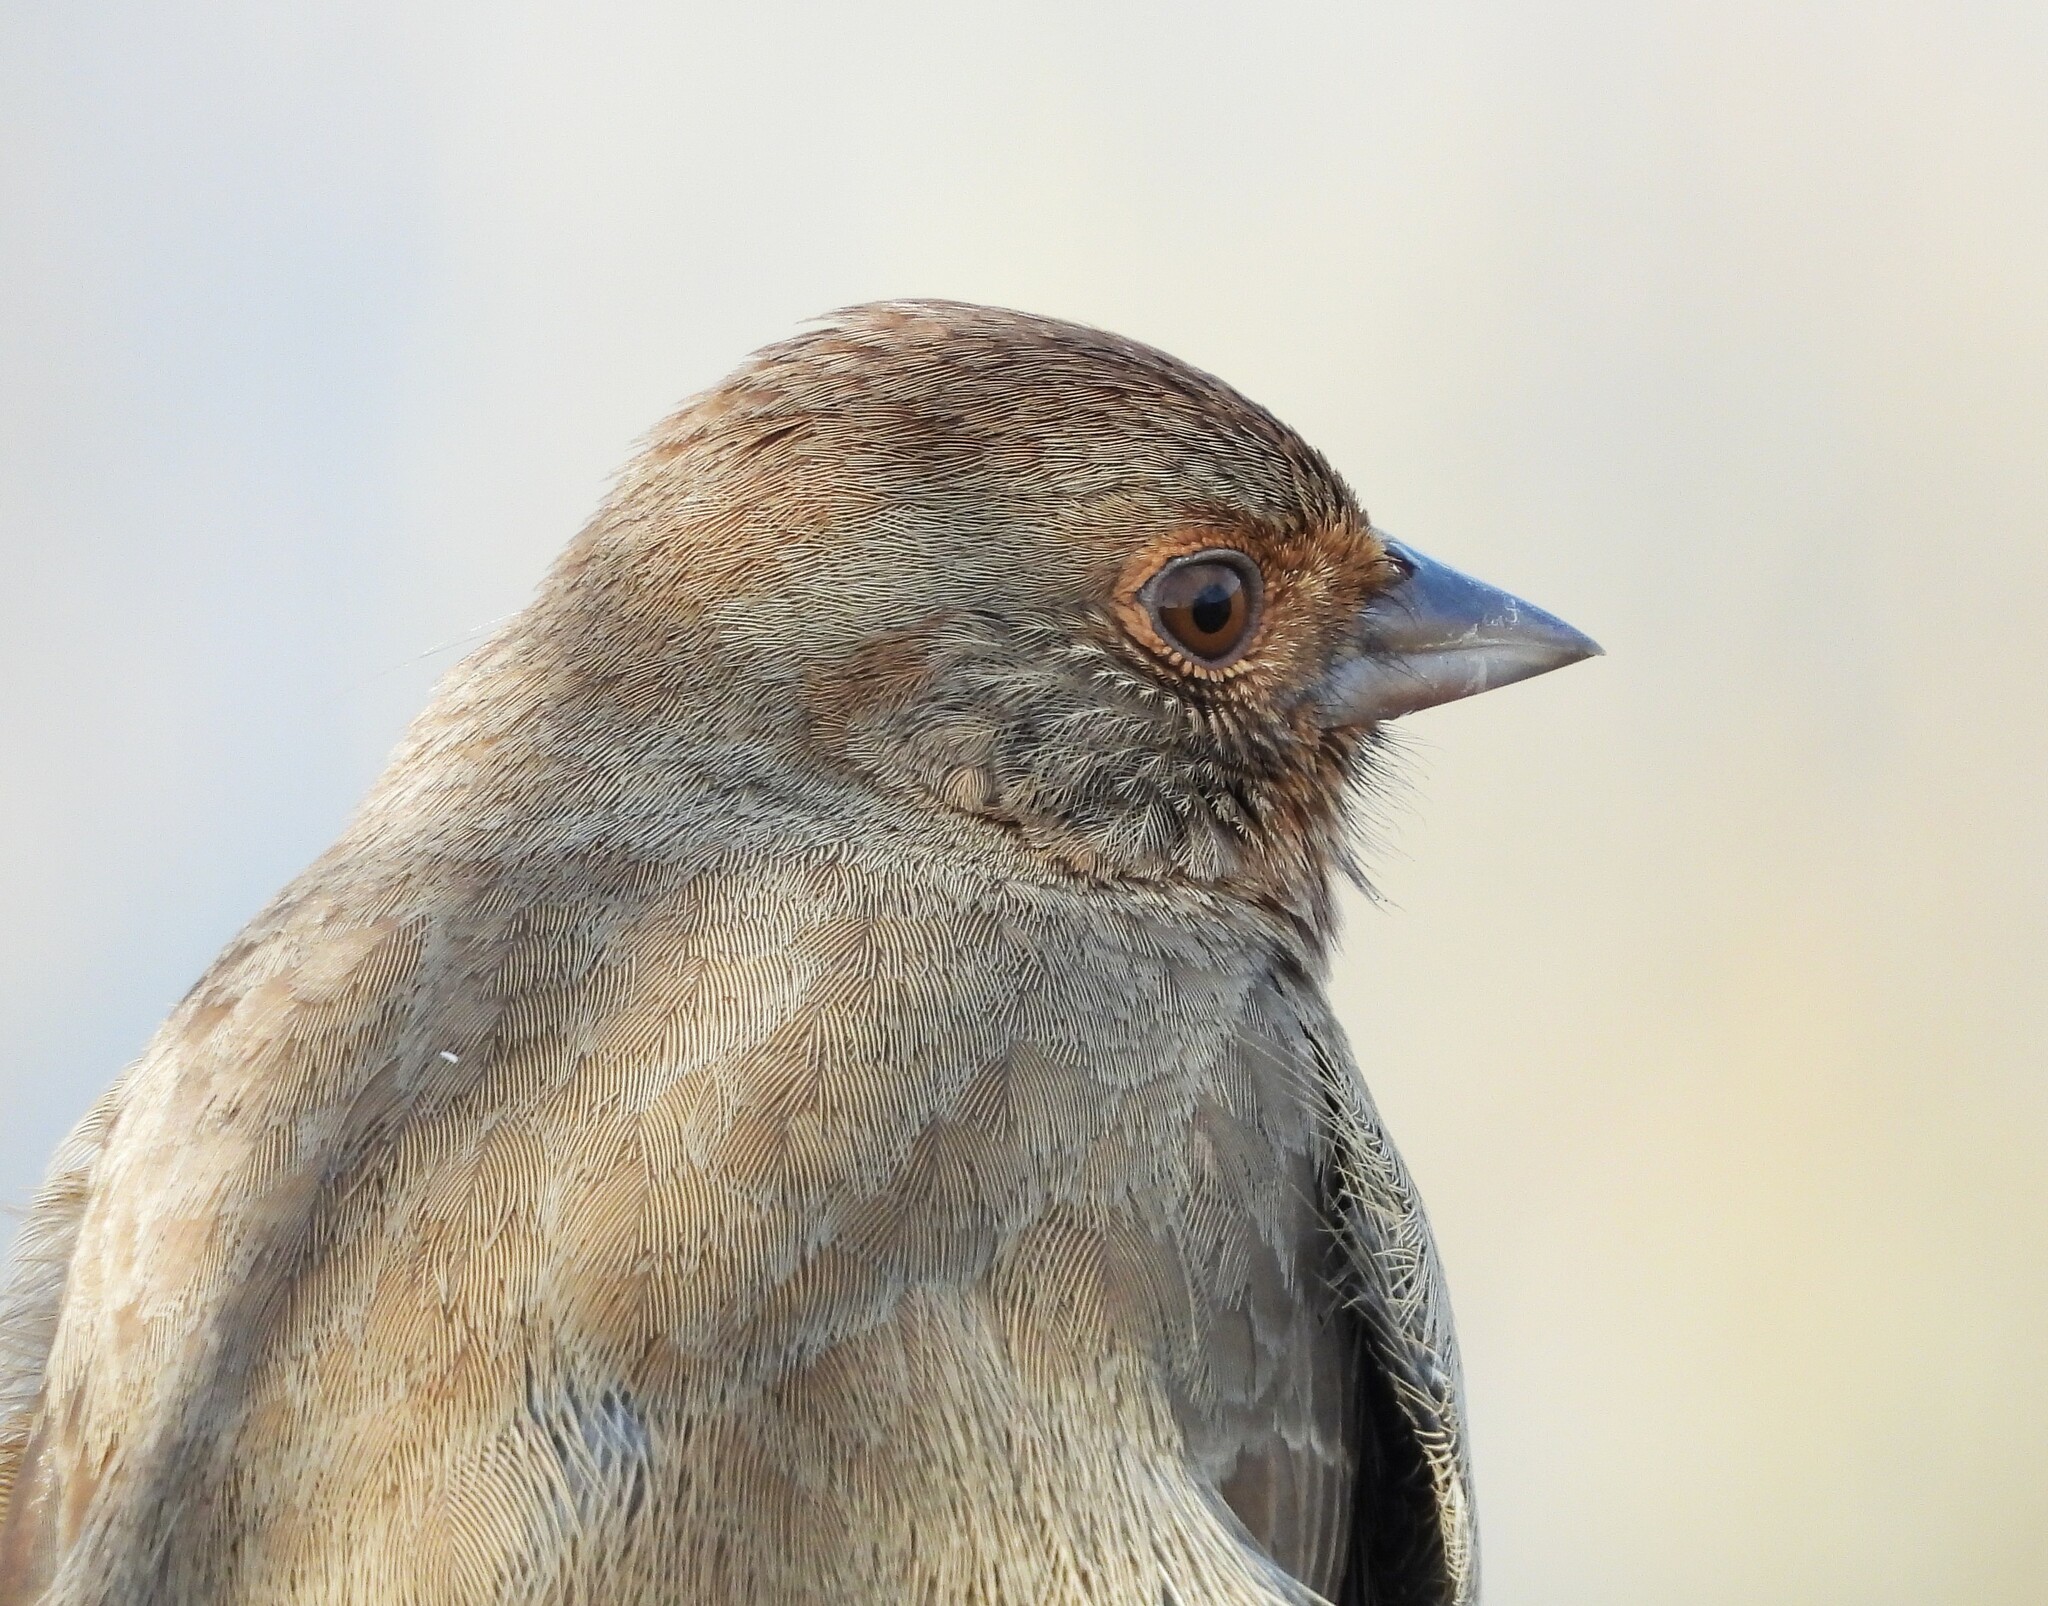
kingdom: Animalia
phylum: Chordata
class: Aves
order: Passeriformes
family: Passerellidae
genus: Melozone
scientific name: Melozone crissalis
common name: California towhee
